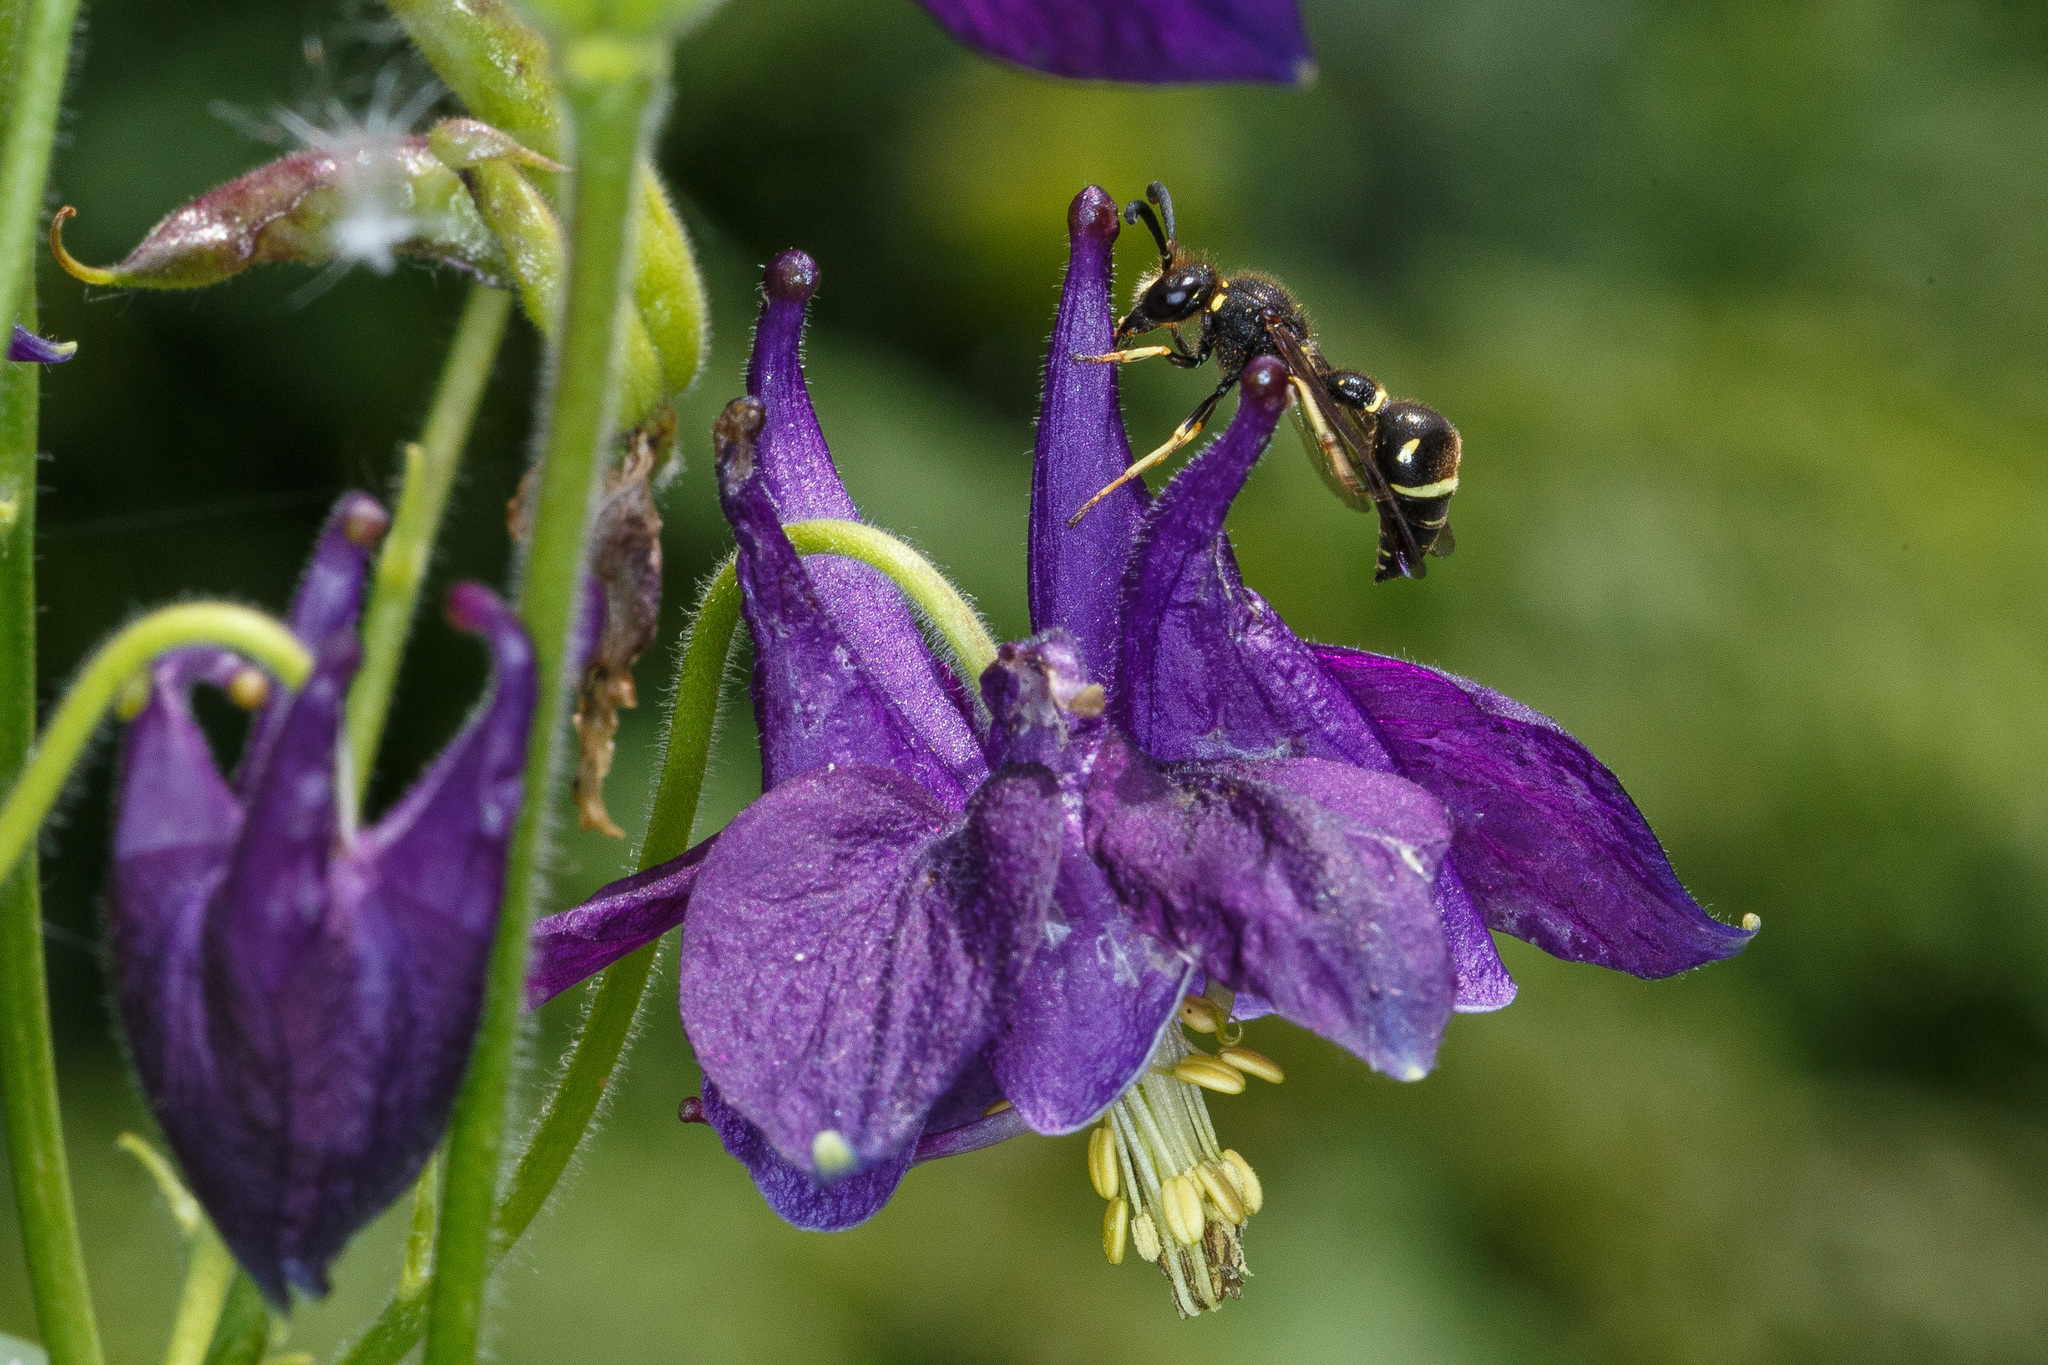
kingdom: Animalia
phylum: Arthropoda
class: Insecta
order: Hymenoptera
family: Vespidae
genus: Eumenes
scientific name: Eumenes consobrinus
